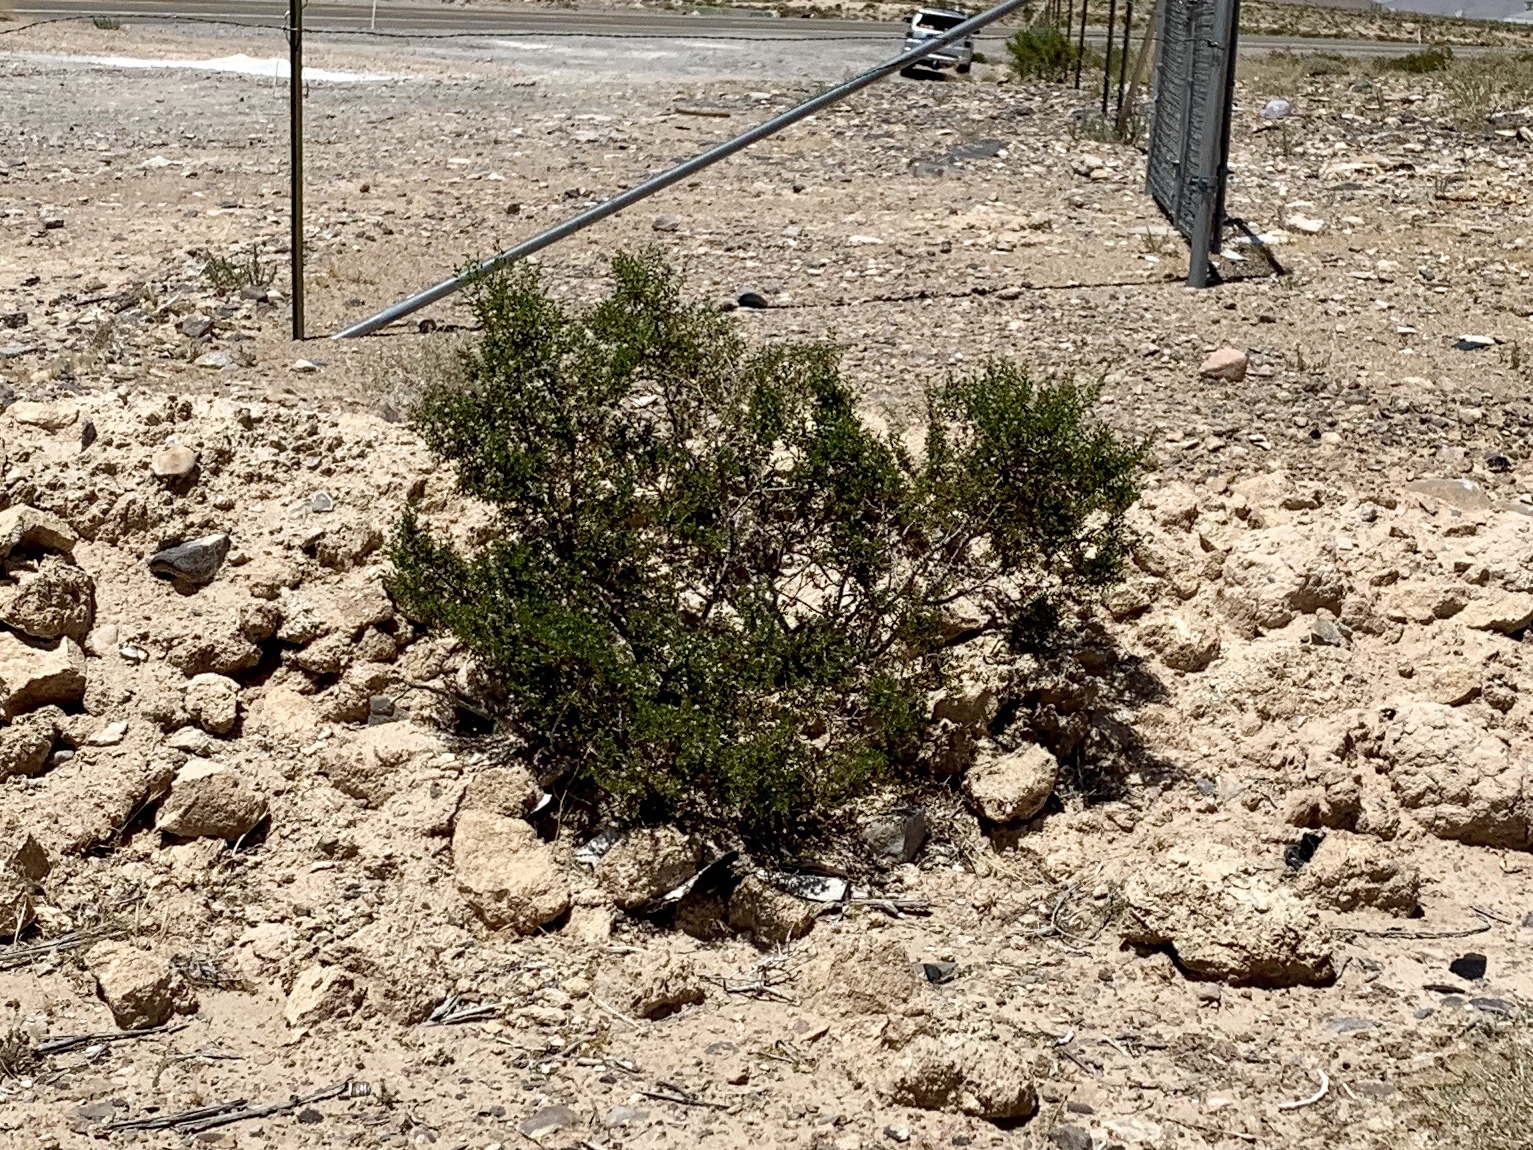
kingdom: Plantae
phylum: Tracheophyta
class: Magnoliopsida
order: Zygophyllales
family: Zygophyllaceae
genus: Larrea
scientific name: Larrea tridentata
